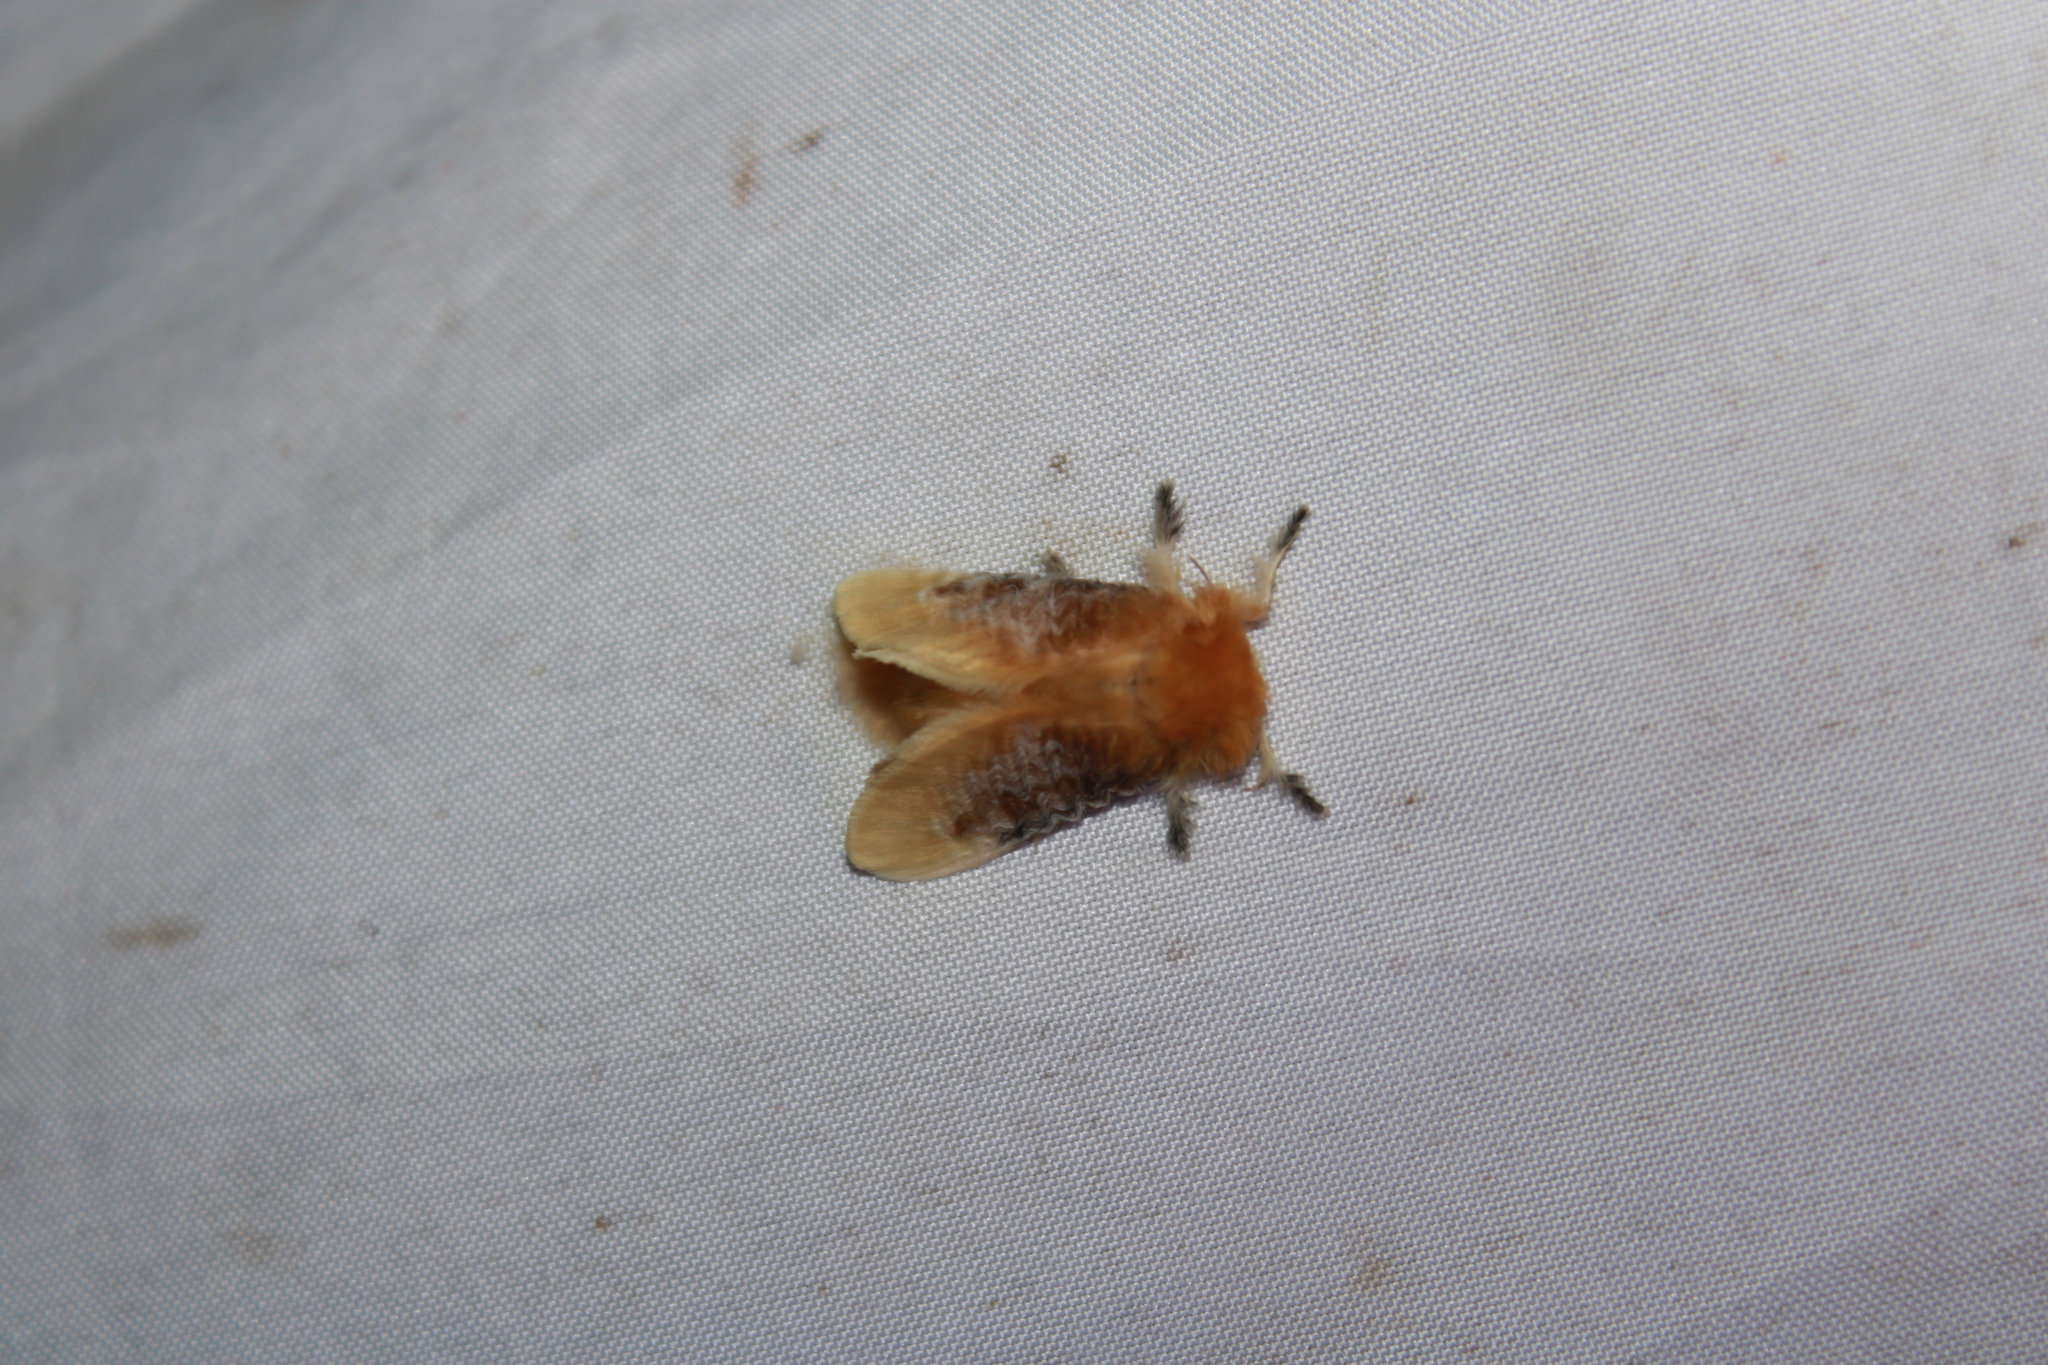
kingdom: Animalia
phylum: Arthropoda
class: Insecta
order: Lepidoptera
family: Megalopygidae
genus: Megalopyge
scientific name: Megalopyge opercularis
